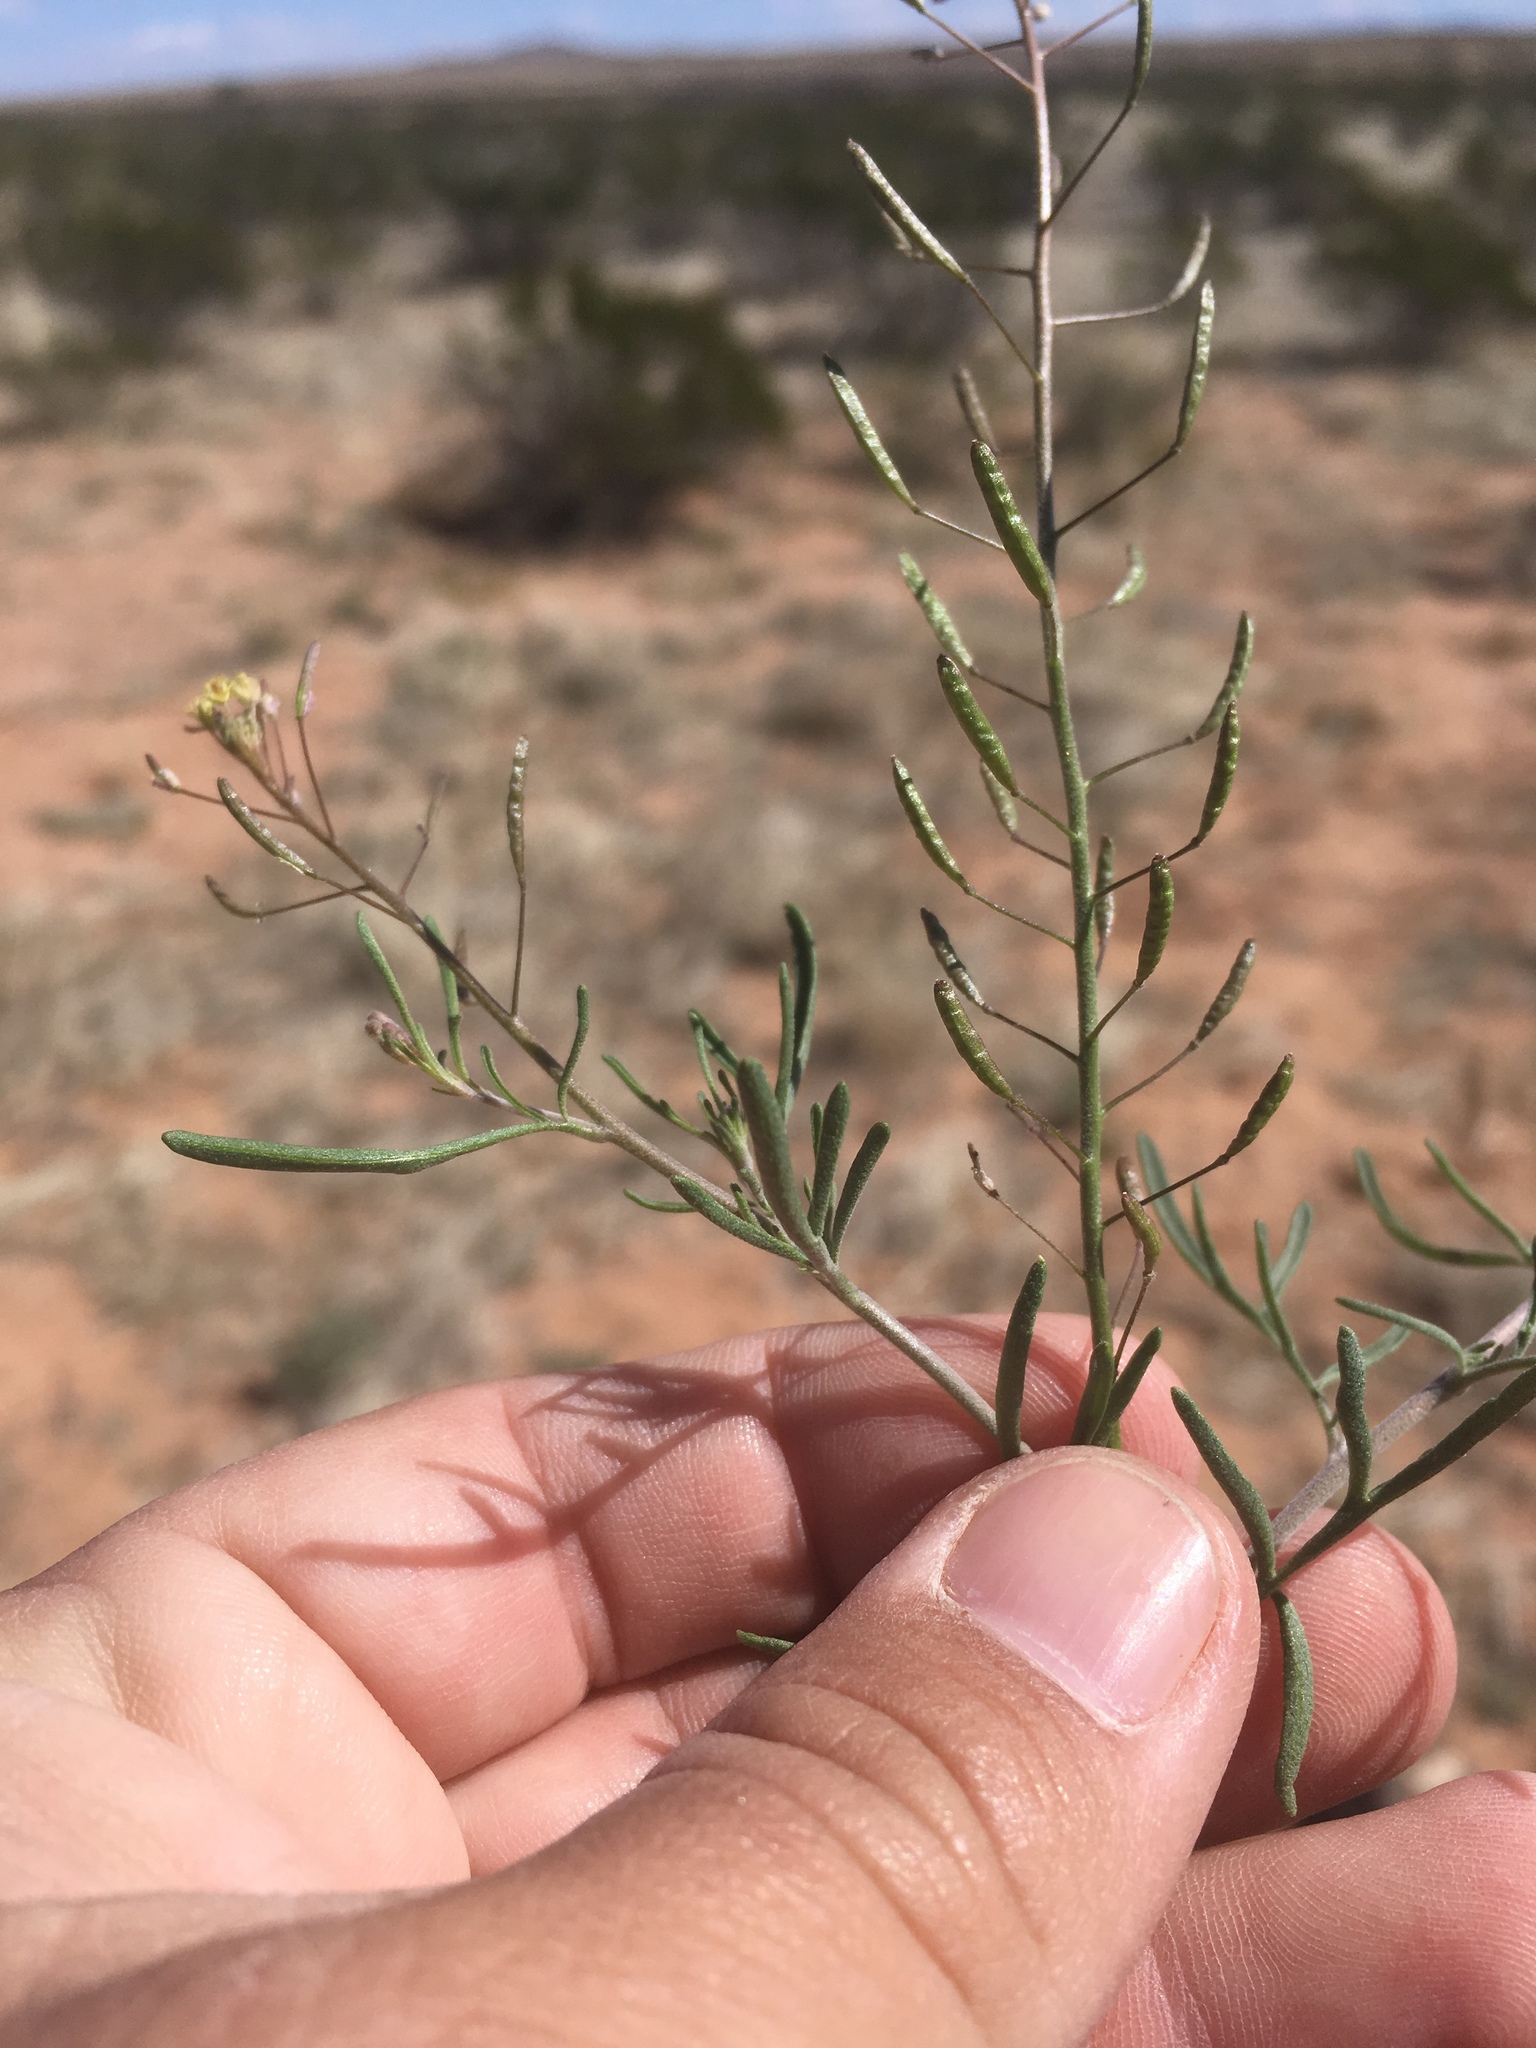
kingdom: Plantae
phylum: Tracheophyta
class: Magnoliopsida
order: Brassicales
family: Brassicaceae
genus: Descurainia
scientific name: Descurainia pinnata
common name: Western tansy mustard
